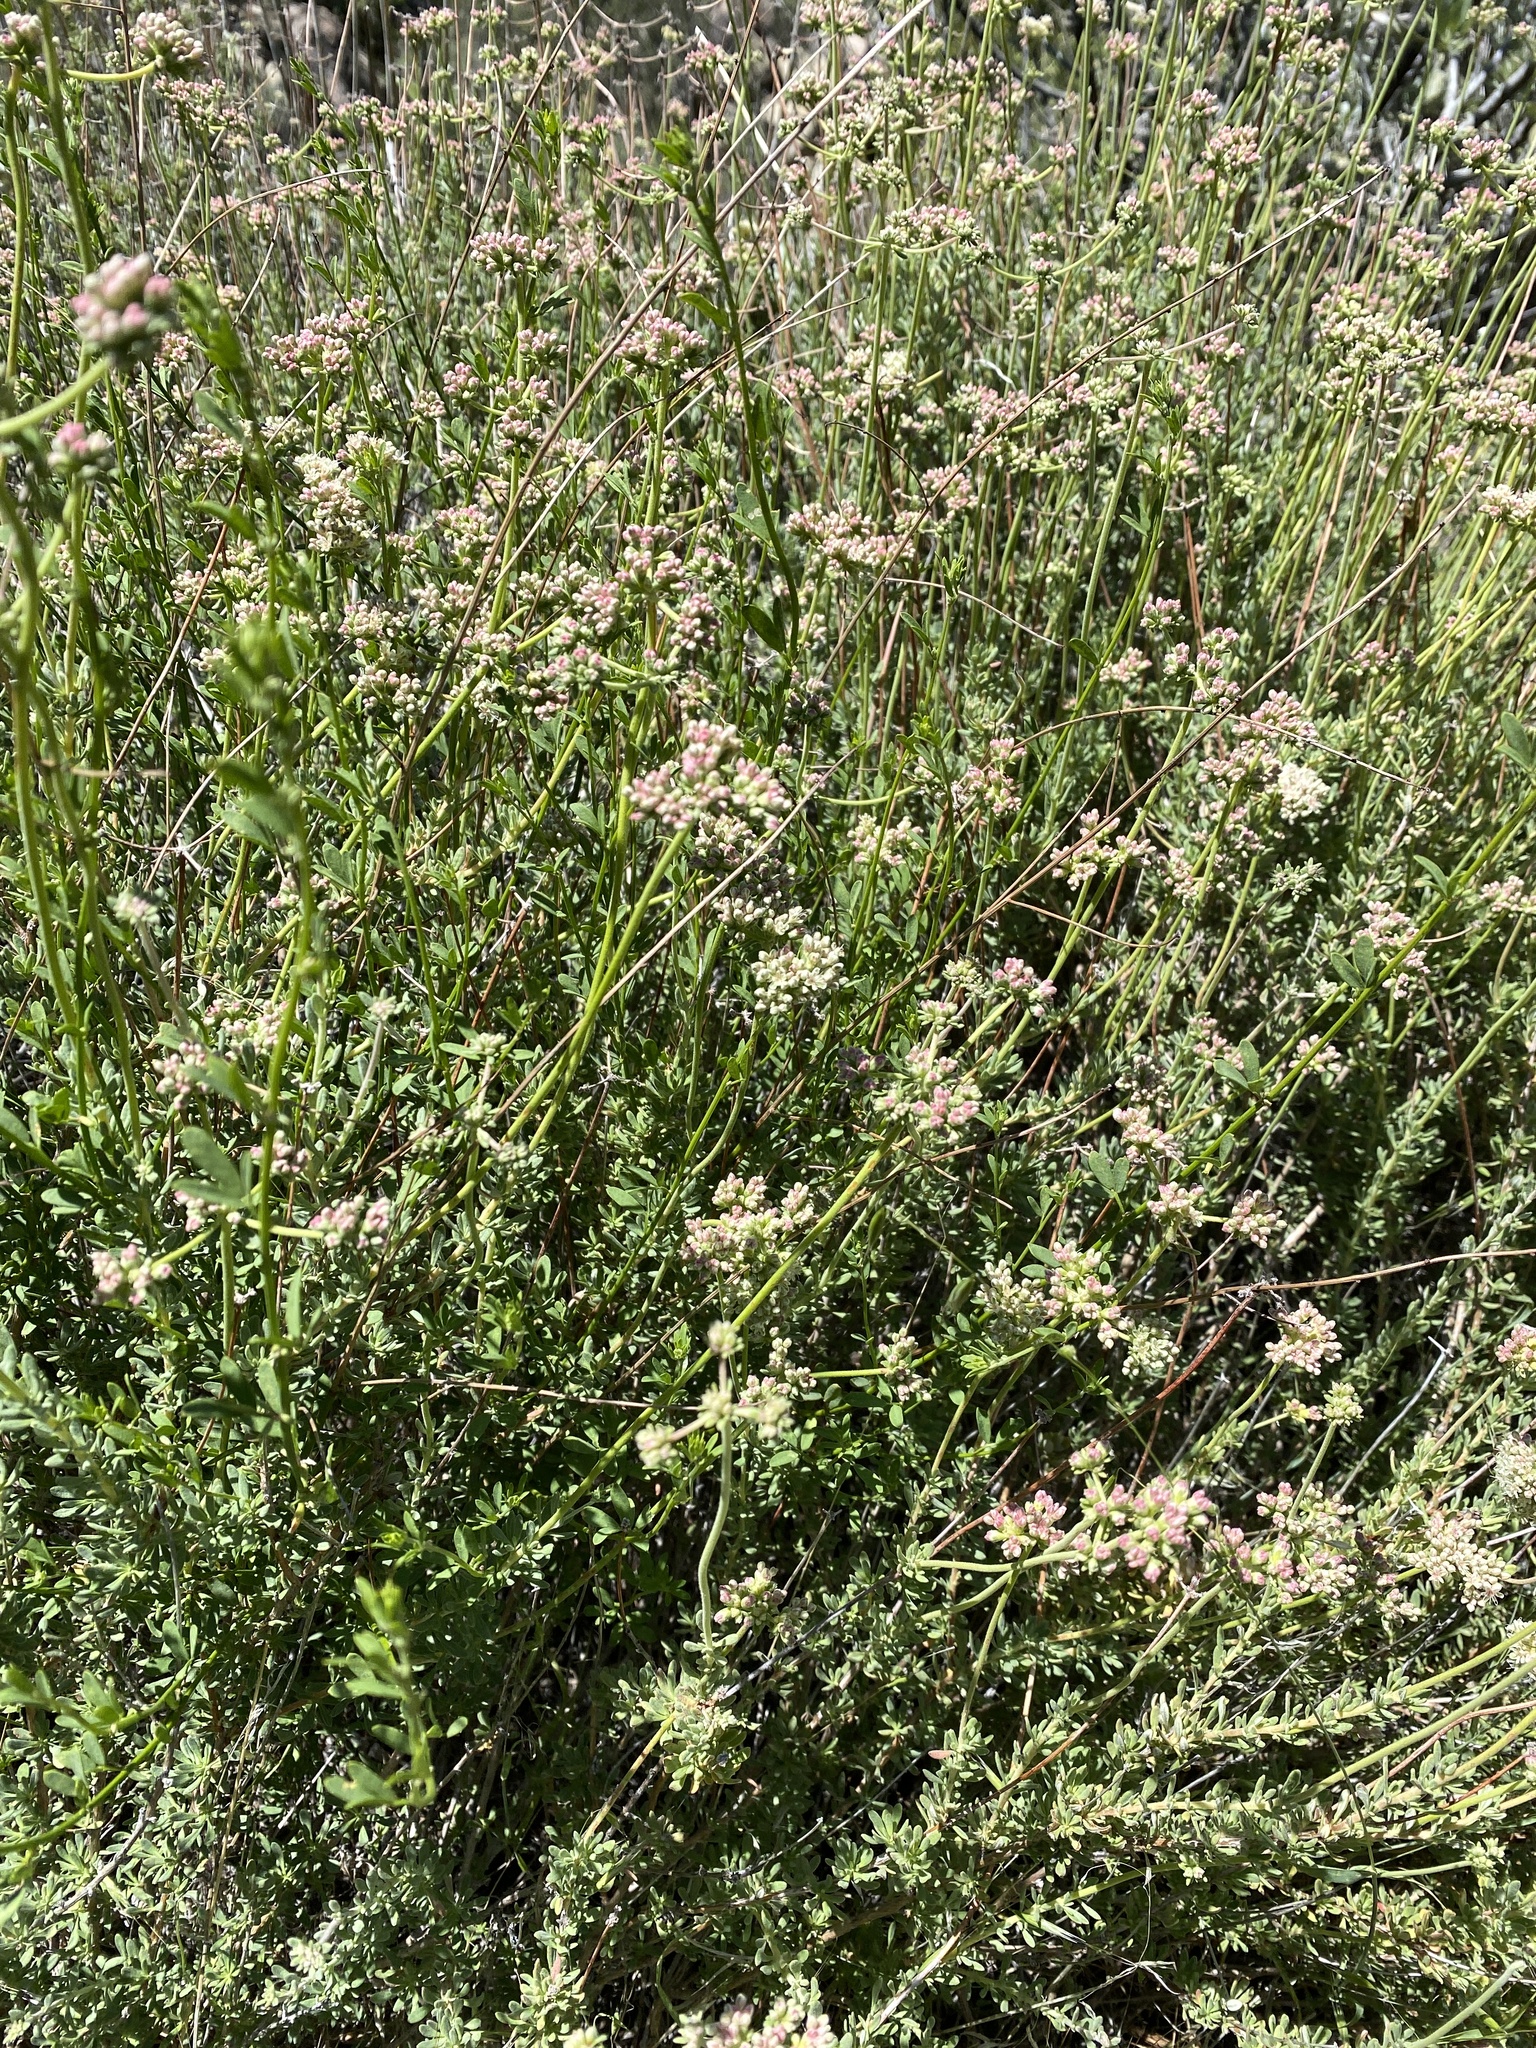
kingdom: Plantae
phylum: Tracheophyta
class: Magnoliopsida
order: Caryophyllales
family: Polygonaceae
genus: Eriogonum
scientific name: Eriogonum fasciculatum
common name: California wild buckwheat
